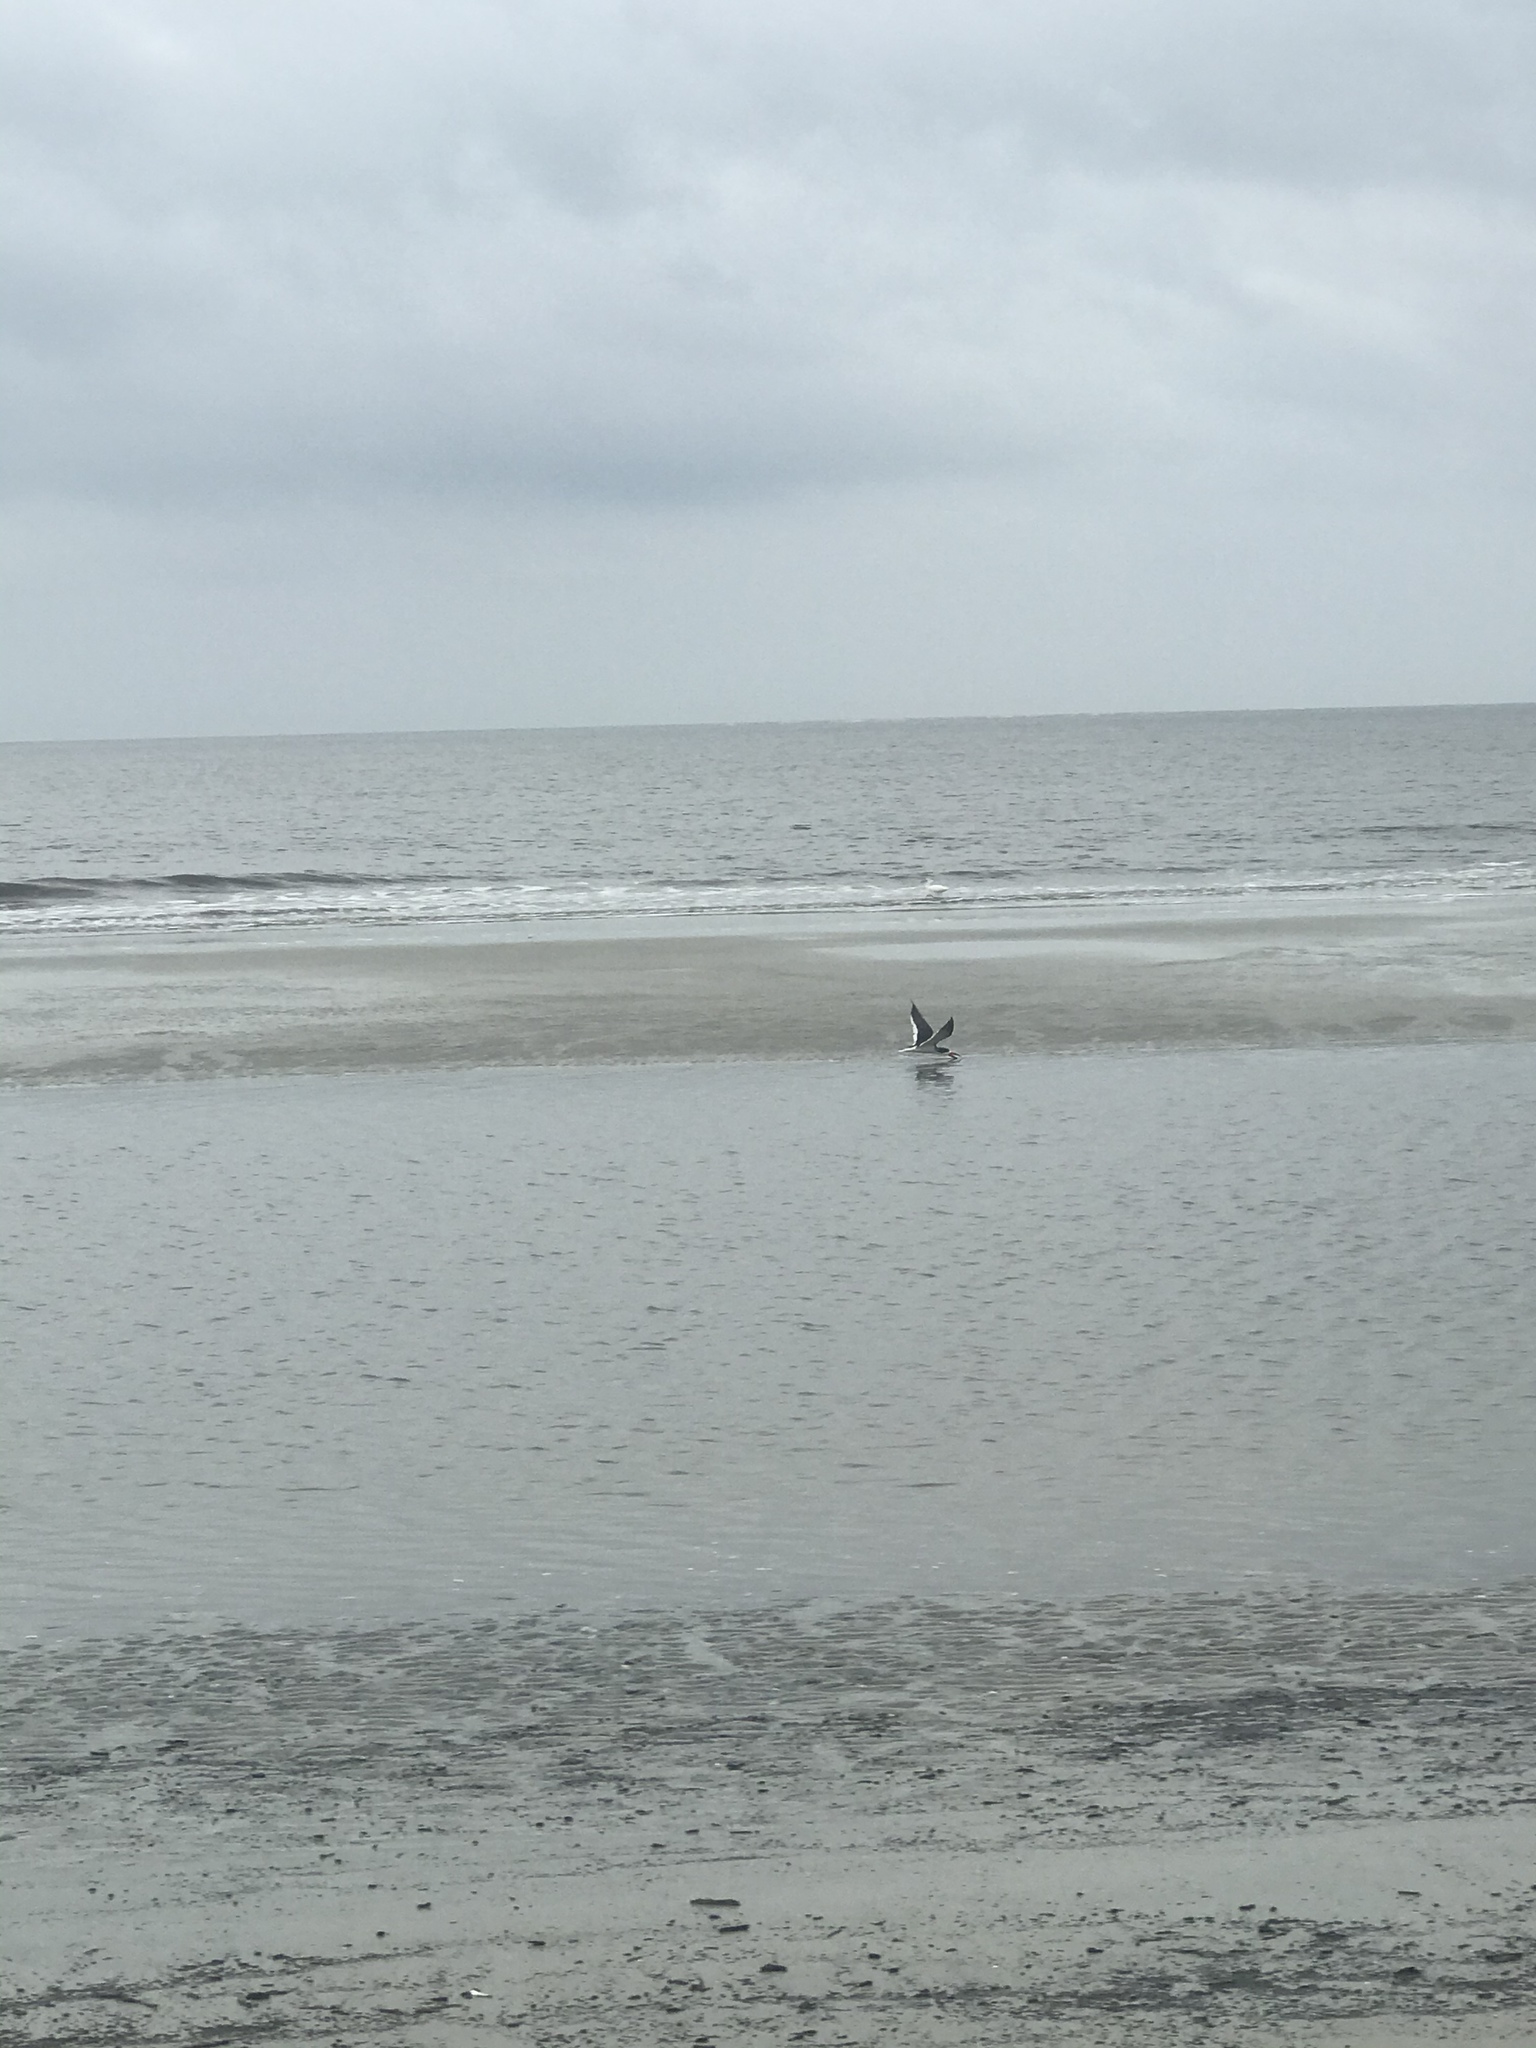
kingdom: Animalia
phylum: Chordata
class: Aves
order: Charadriiformes
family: Laridae
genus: Rynchops
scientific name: Rynchops niger
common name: Black skimmer
